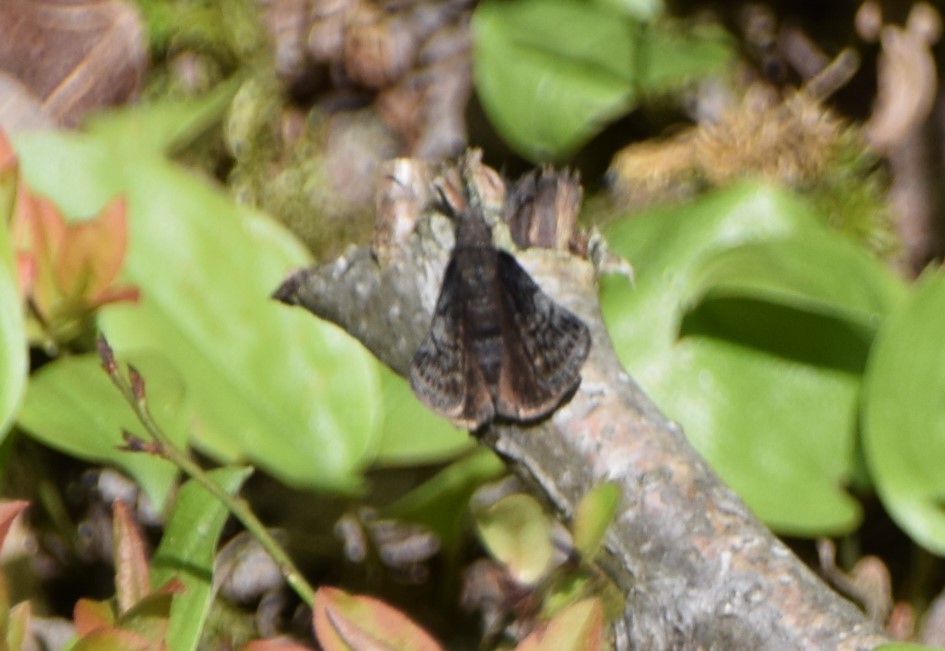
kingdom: Animalia
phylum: Arthropoda
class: Insecta
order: Lepidoptera
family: Hesperiidae
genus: Erynnis
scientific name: Erynnis icelus
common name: Dreamy duskywing
